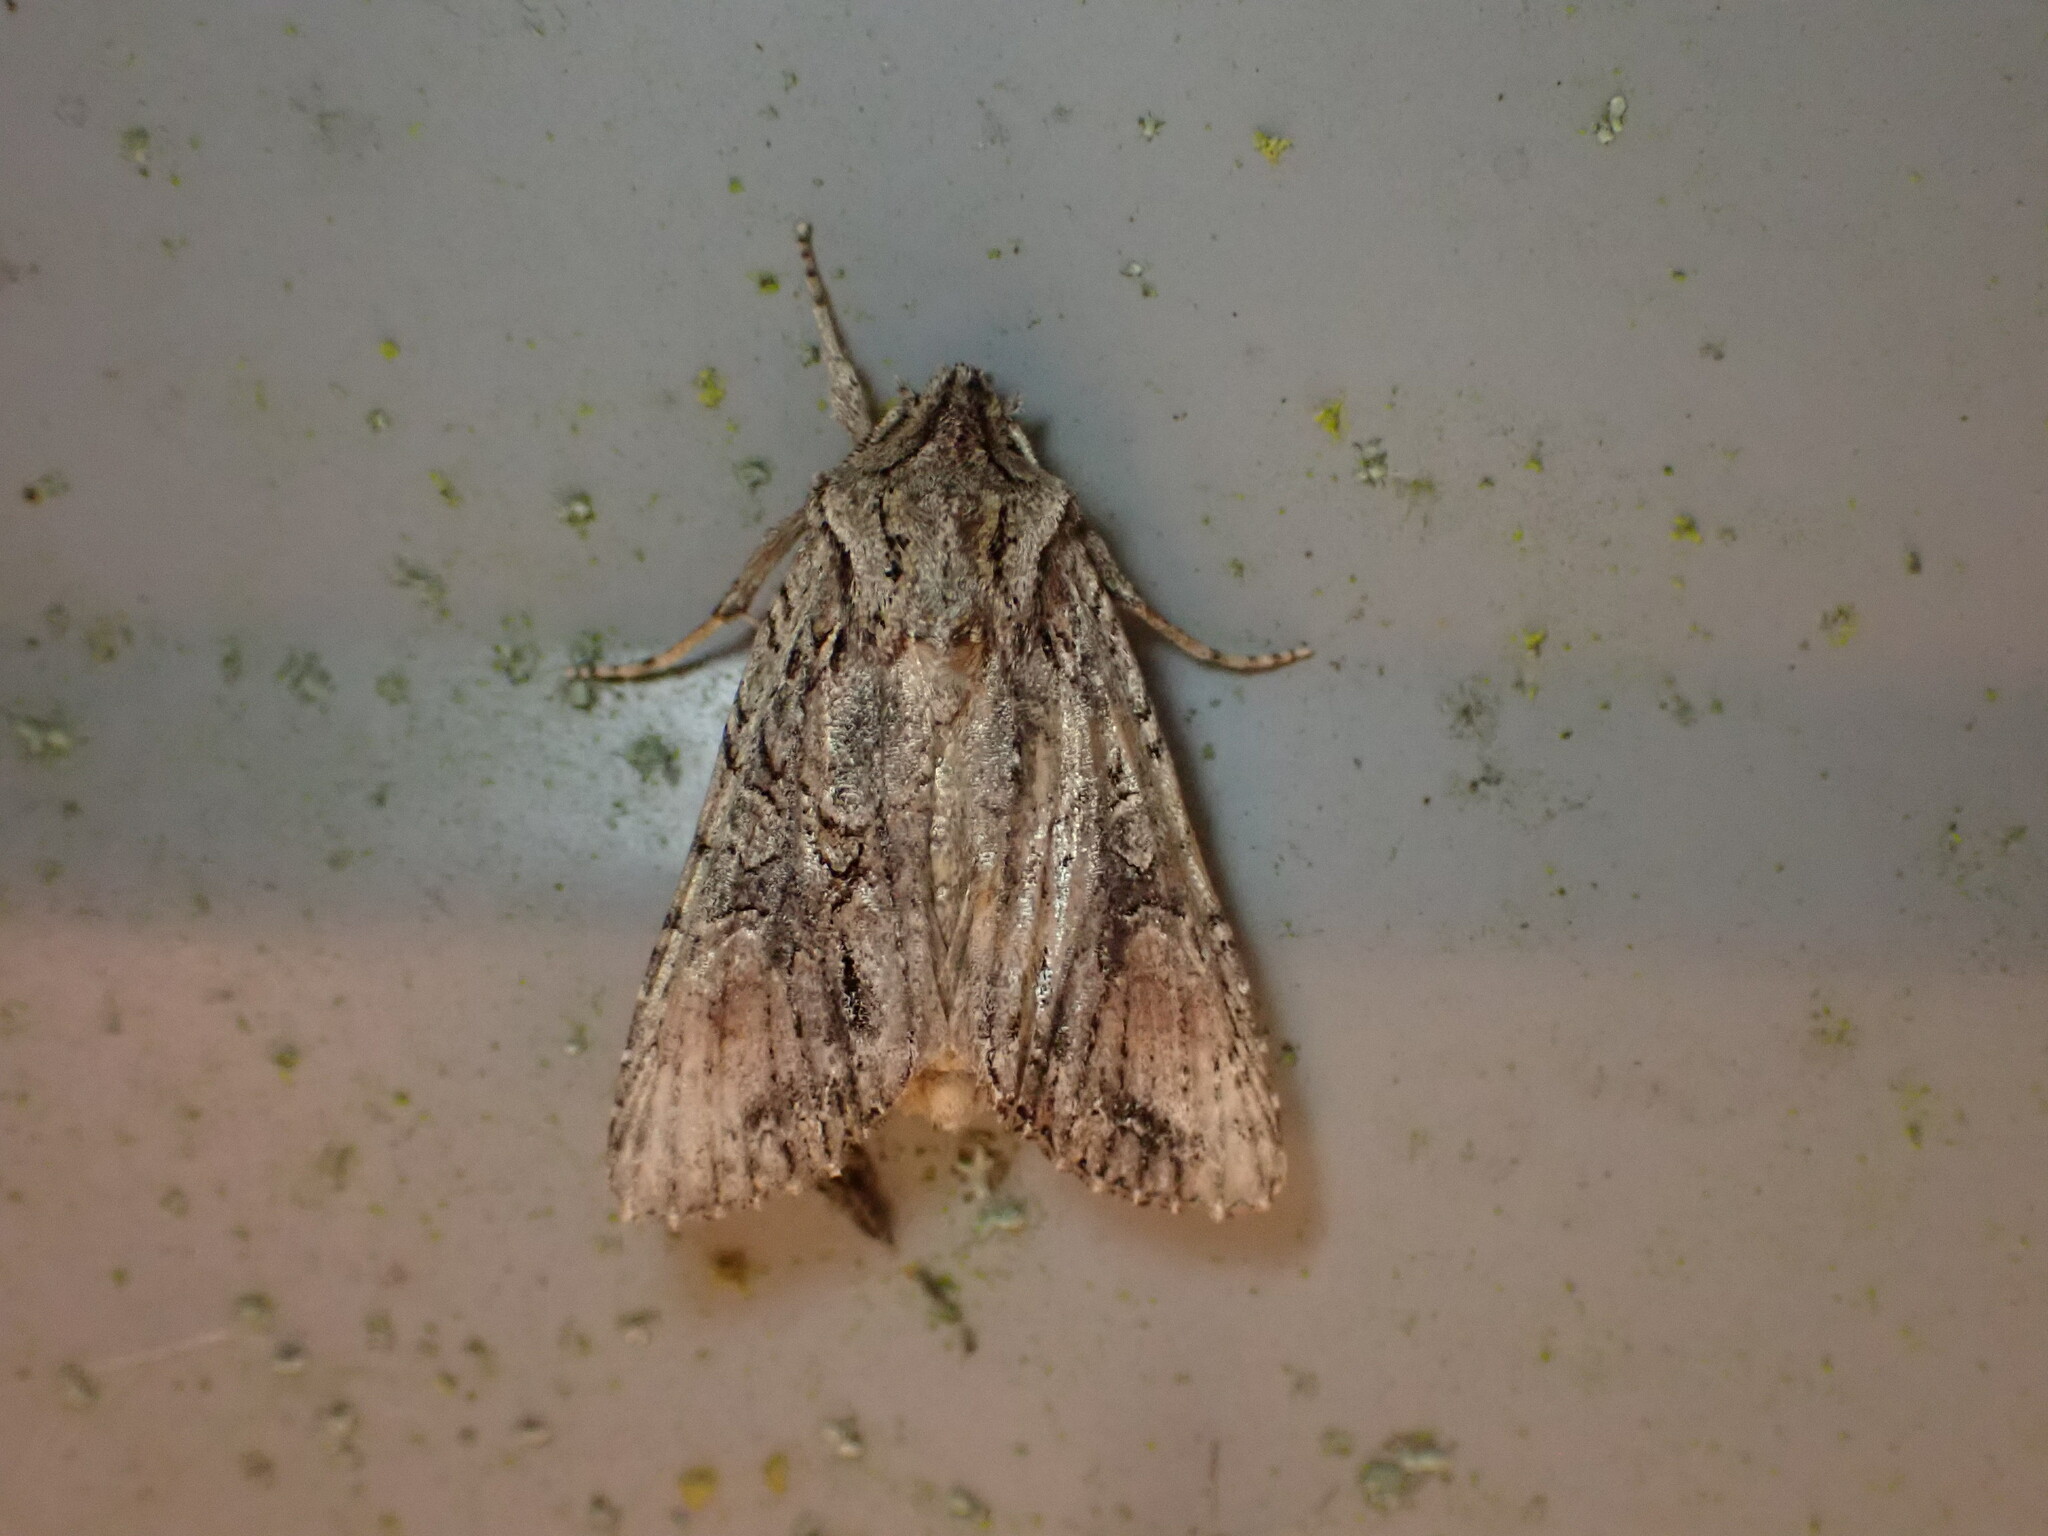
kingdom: Animalia
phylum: Arthropoda
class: Insecta
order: Lepidoptera
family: Noctuidae
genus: Ichneutica
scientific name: Ichneutica mutans
